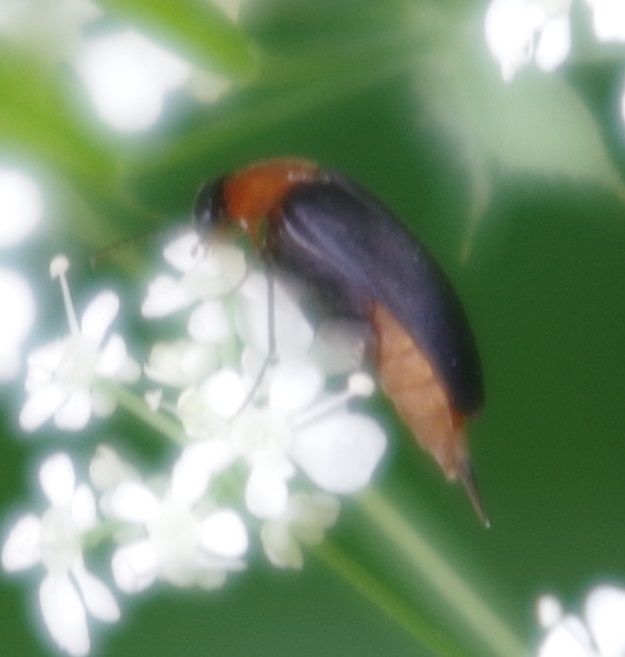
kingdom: Animalia
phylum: Arthropoda
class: Insecta
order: Coleoptera
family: Mordellidae
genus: Mordellochroa
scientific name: Mordellochroa abdominalis
